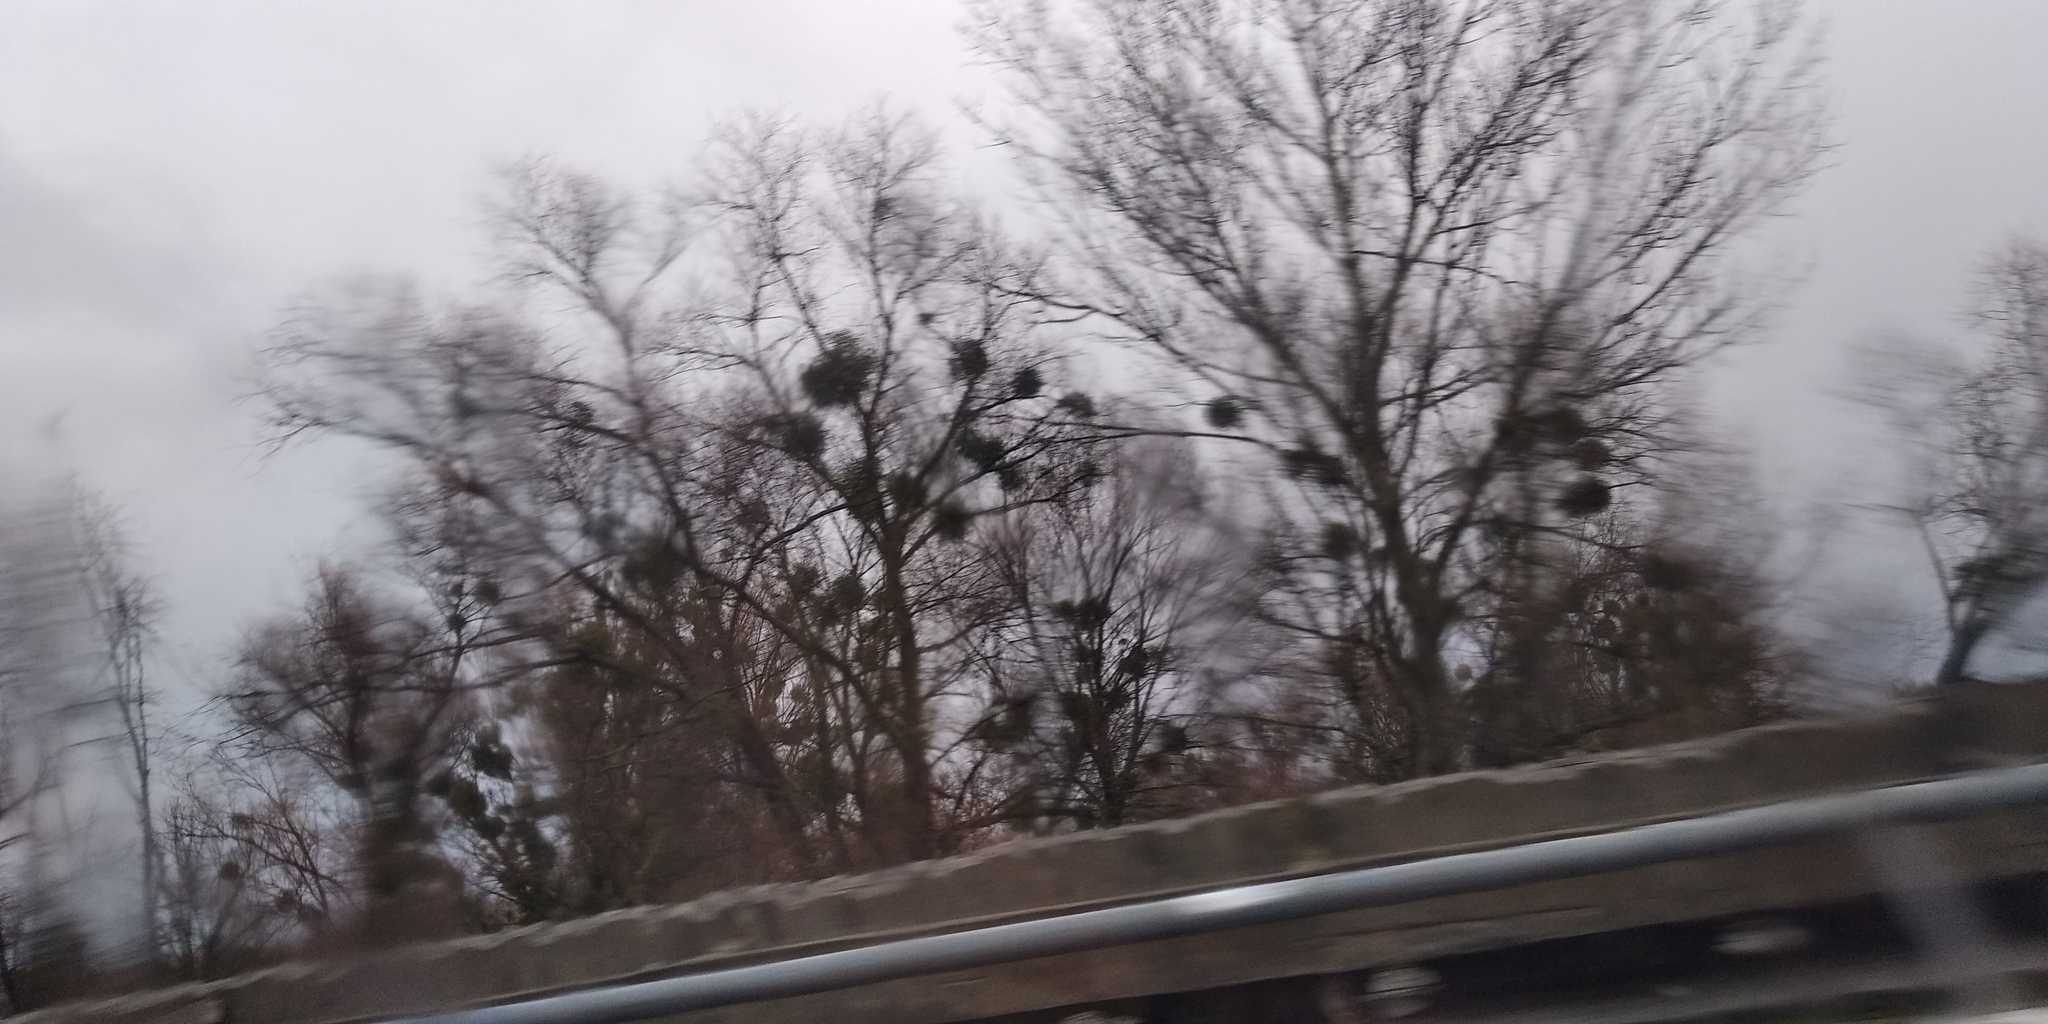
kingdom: Plantae
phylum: Tracheophyta
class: Magnoliopsida
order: Santalales
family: Viscaceae
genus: Viscum
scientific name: Viscum album
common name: Mistletoe
